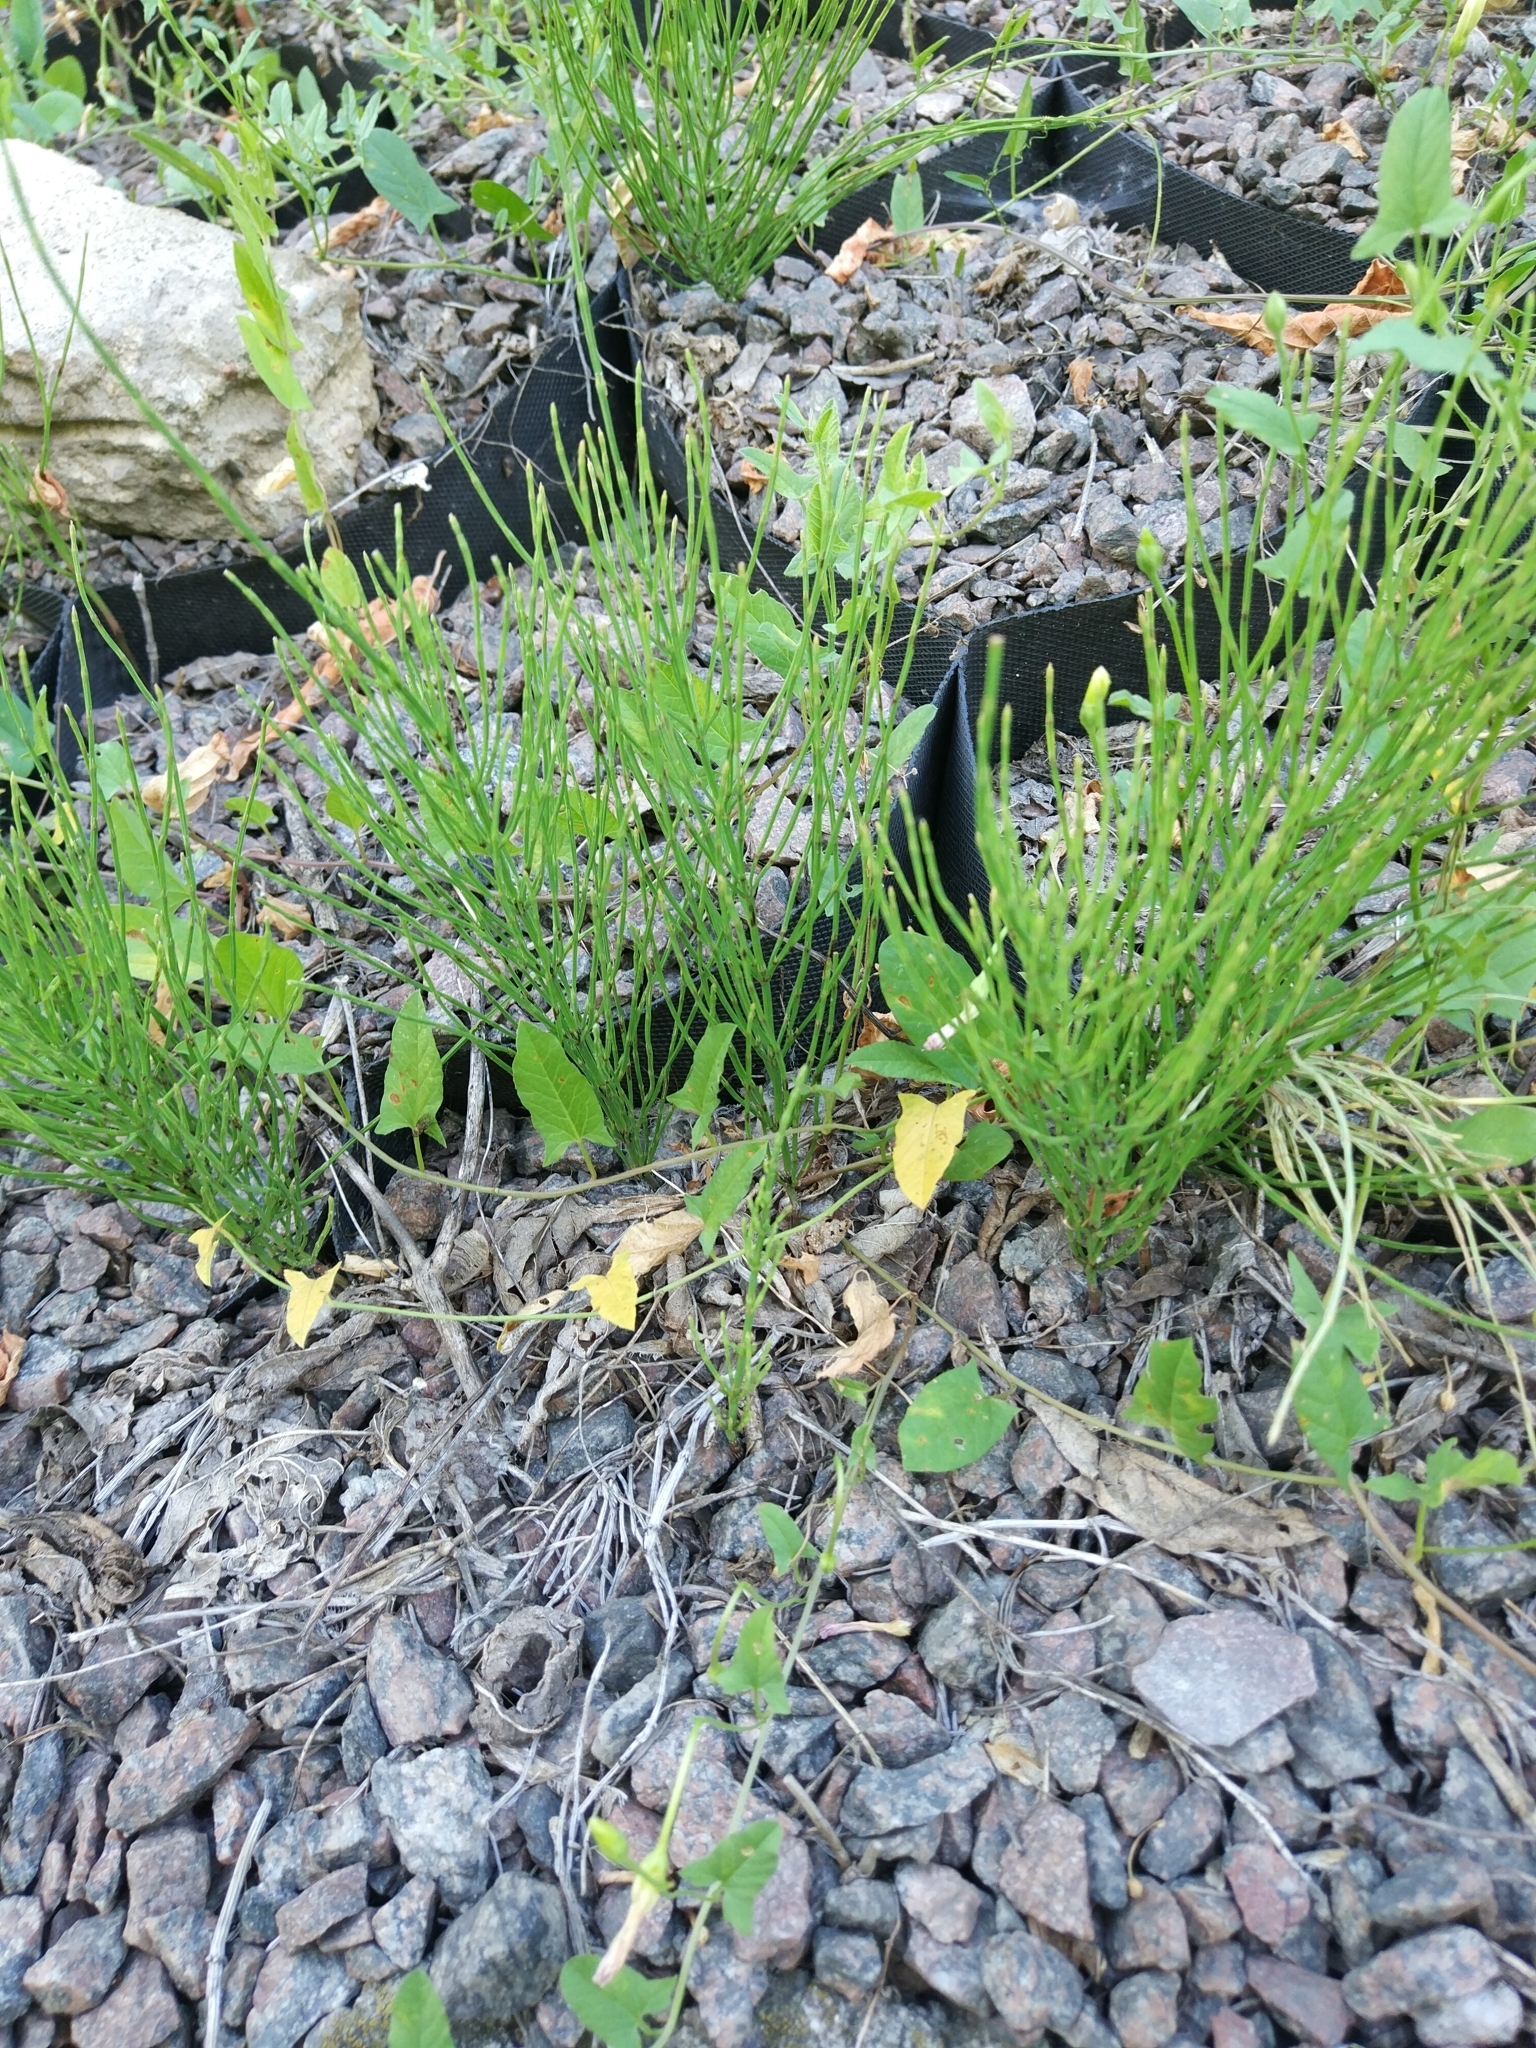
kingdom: Plantae
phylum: Tracheophyta
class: Polypodiopsida
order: Equisetales
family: Equisetaceae
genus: Equisetum
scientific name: Equisetum arvense
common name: Field horsetail
